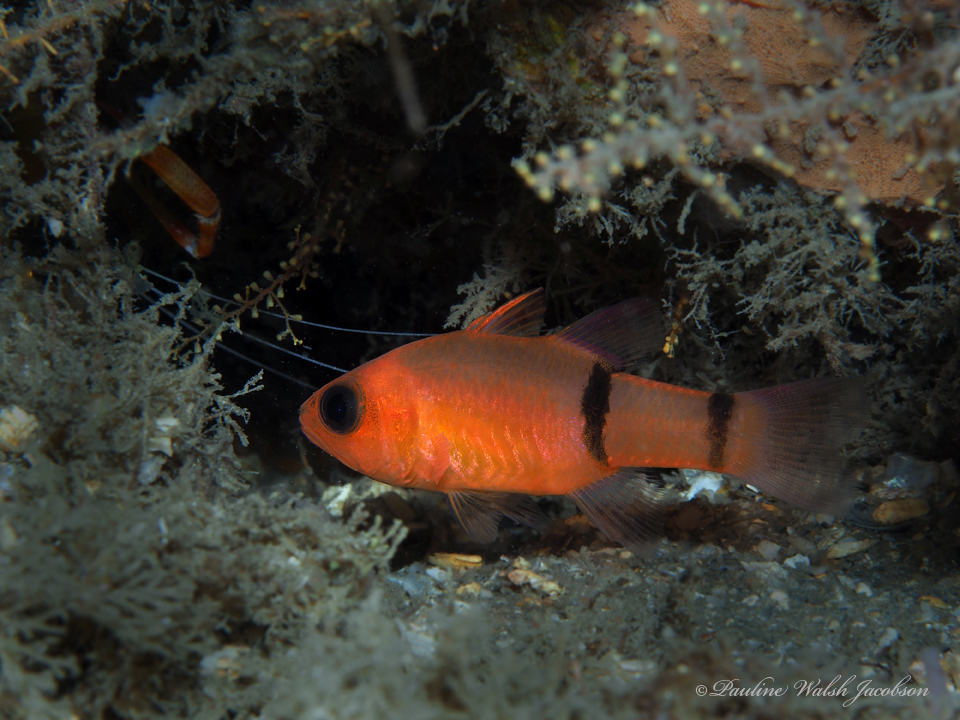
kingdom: Animalia
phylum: Chordata
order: Perciformes
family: Apogonidae
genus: Apogon
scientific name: Apogon binotatus
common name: Barred cardinalfish
